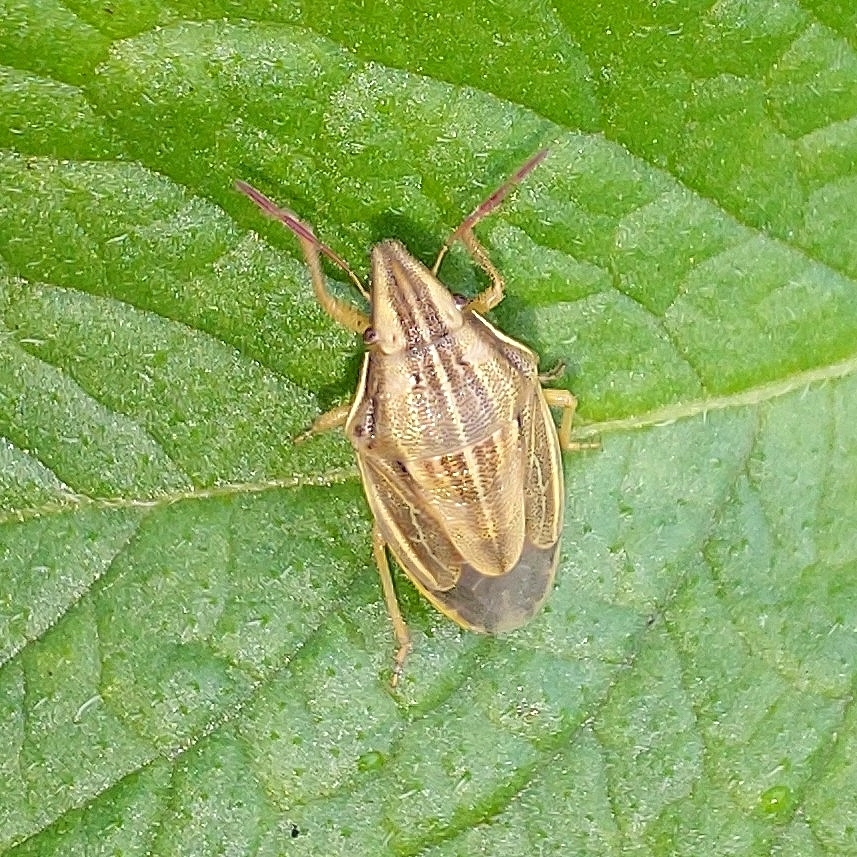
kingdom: Animalia
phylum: Arthropoda
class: Insecta
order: Hemiptera
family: Pentatomidae
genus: Aelia
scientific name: Aelia acuminata
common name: Bishop's mitre
